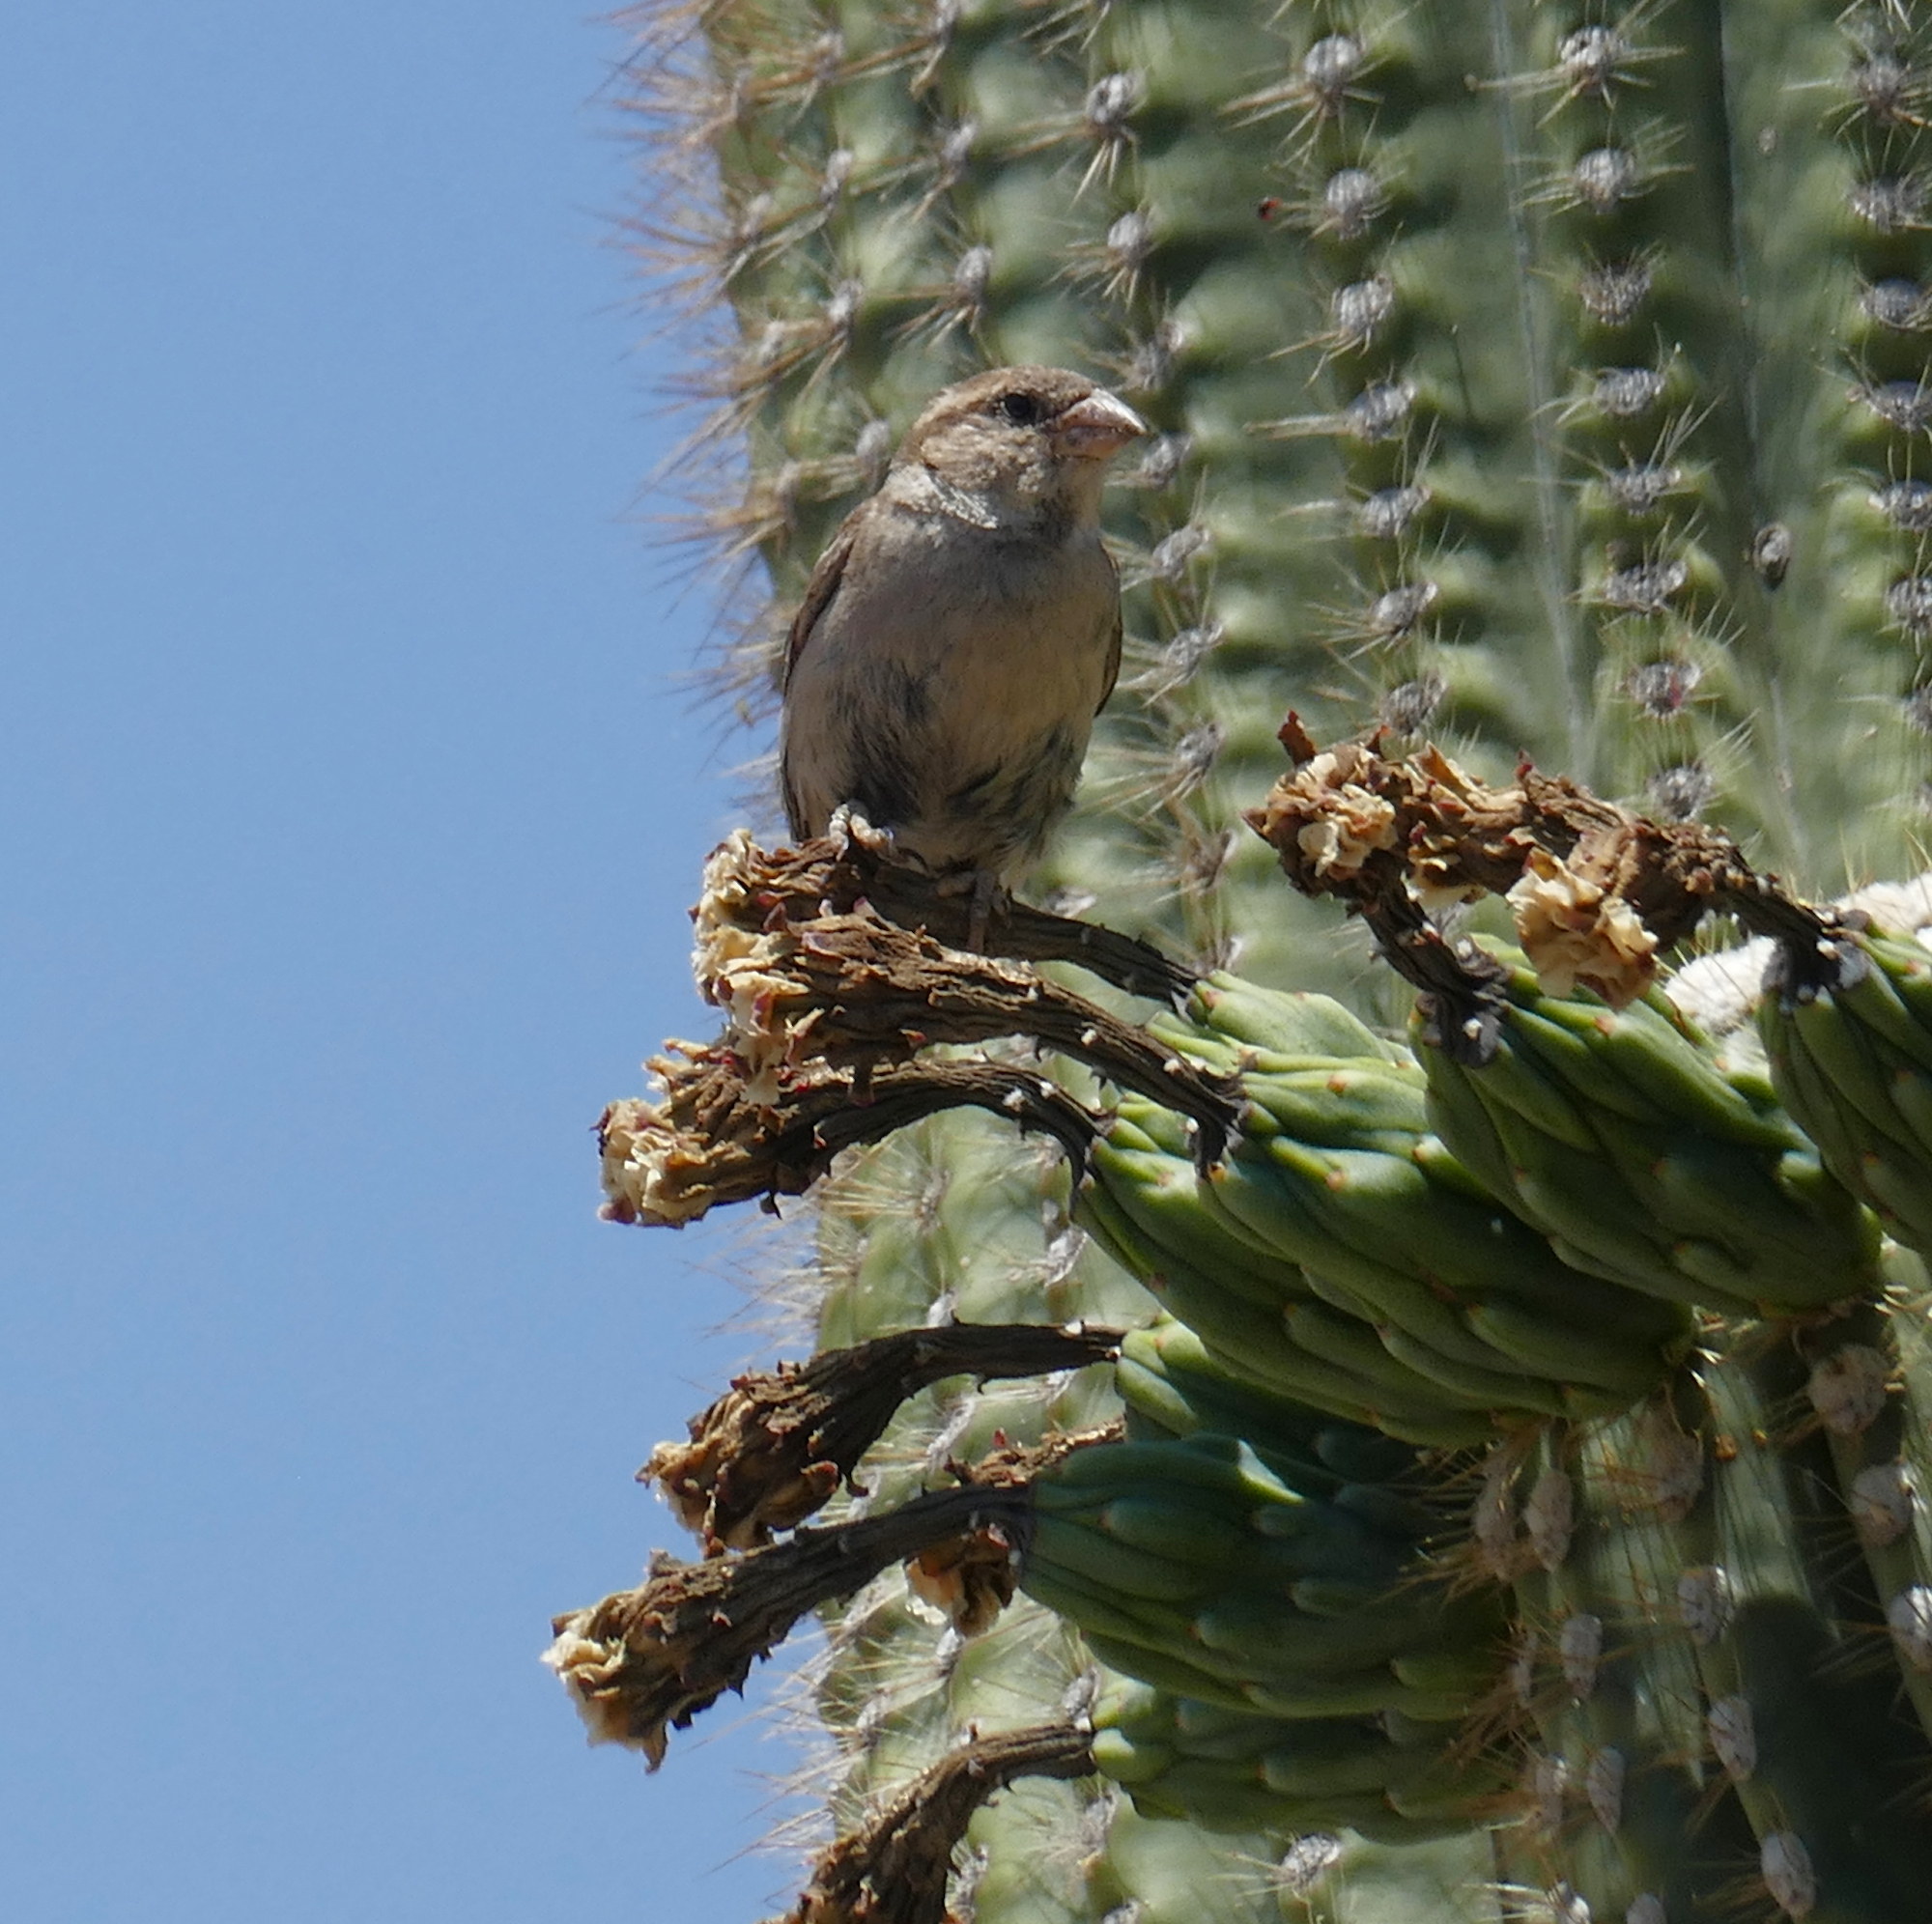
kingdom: Animalia
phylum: Chordata
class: Aves
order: Passeriformes
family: Passeridae
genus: Passer
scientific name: Passer domesticus
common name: House sparrow
